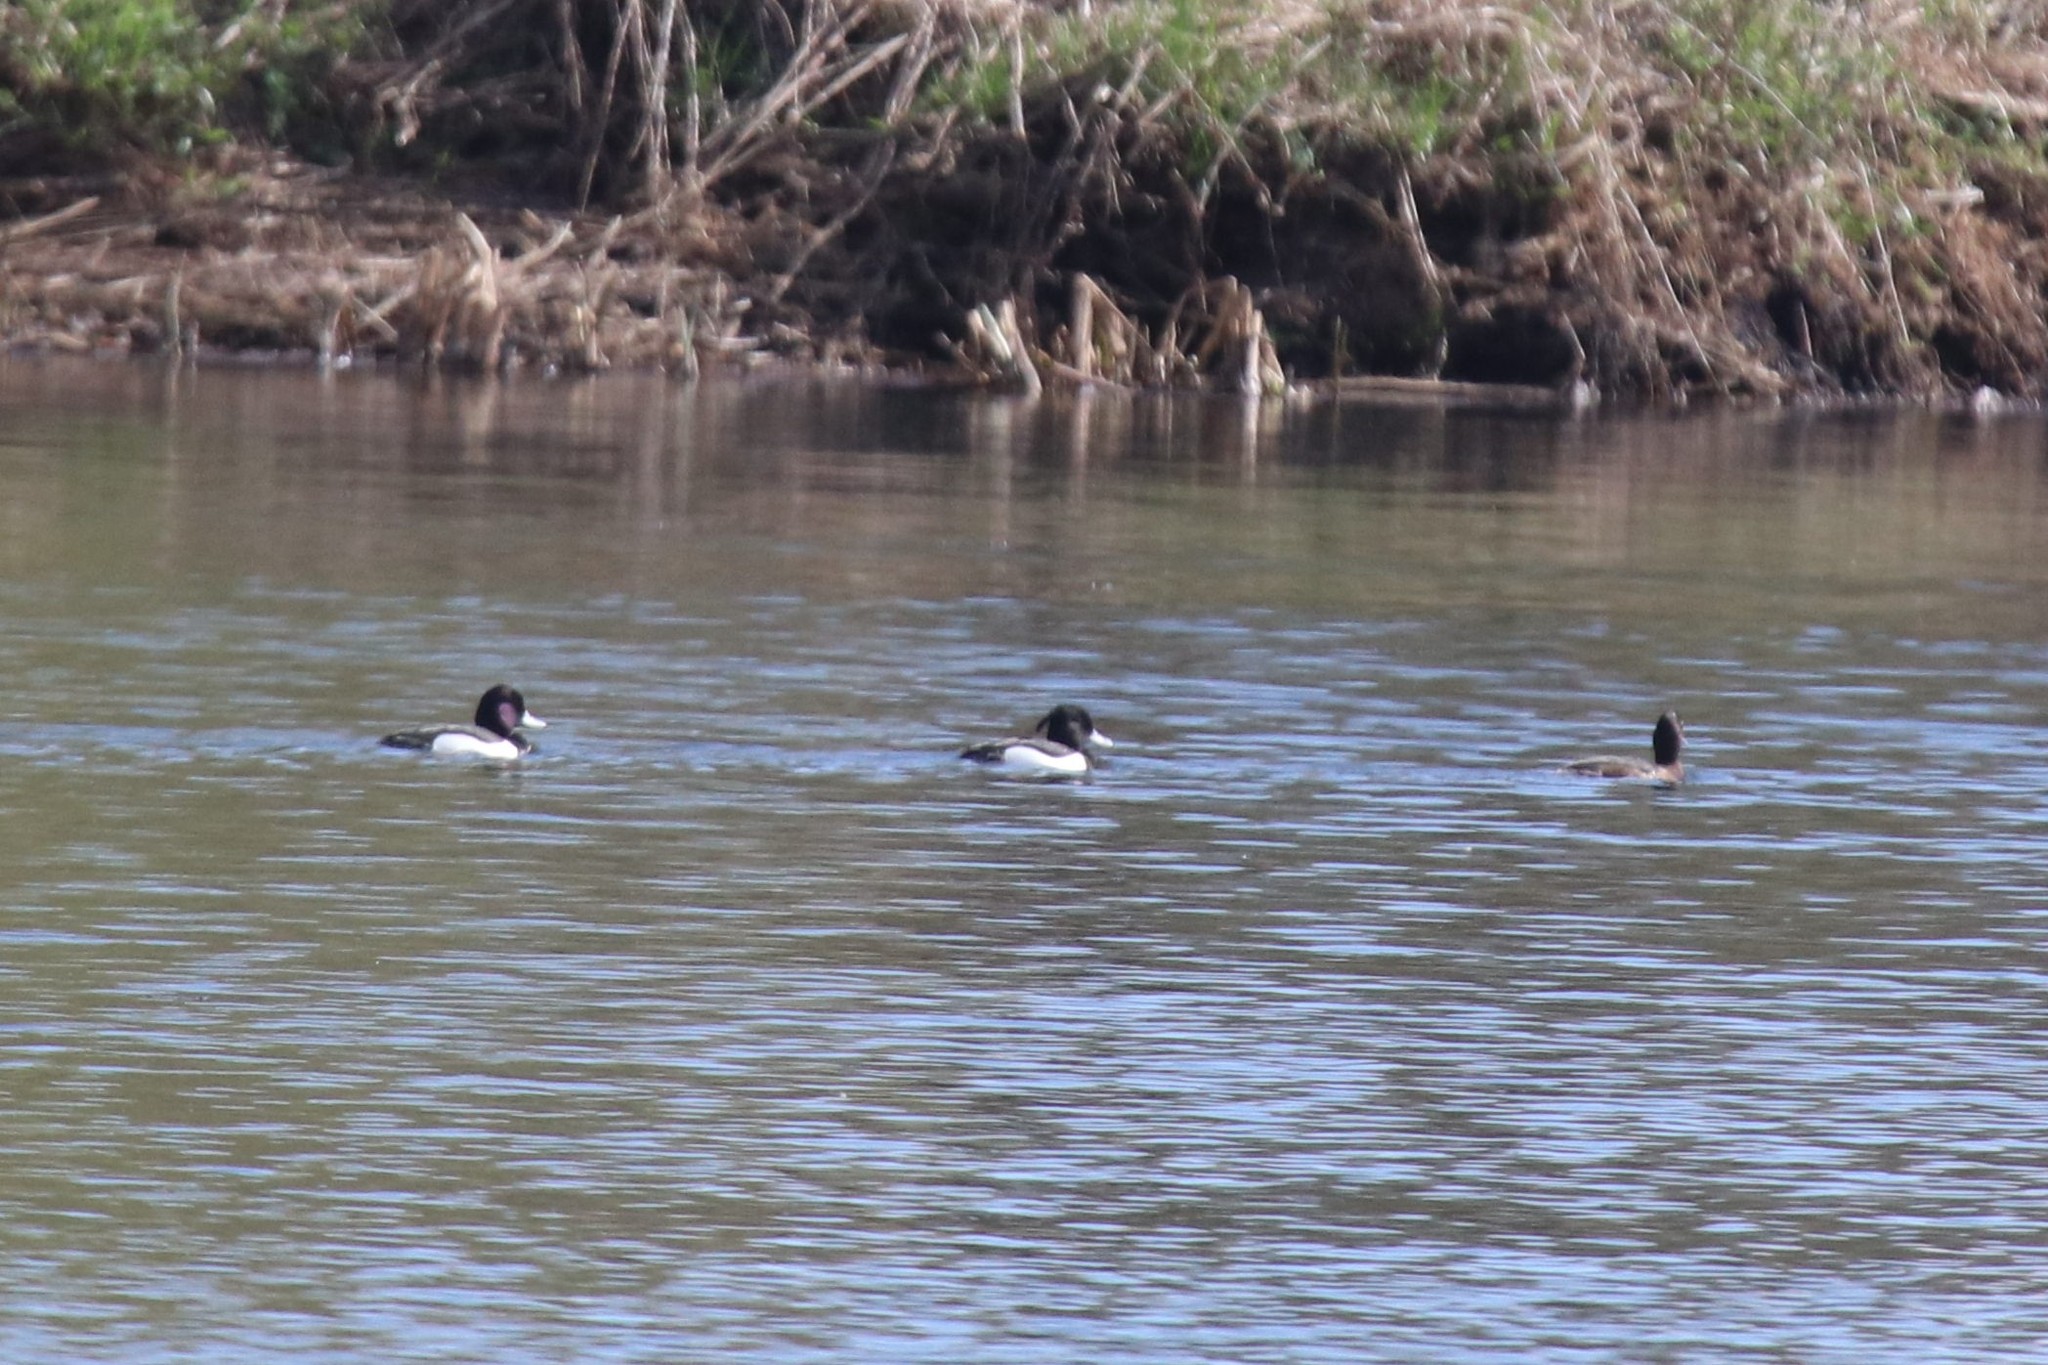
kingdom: Animalia
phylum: Chordata
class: Aves
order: Anseriformes
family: Anatidae
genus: Aythya
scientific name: Aythya fuligula
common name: Tufted duck
